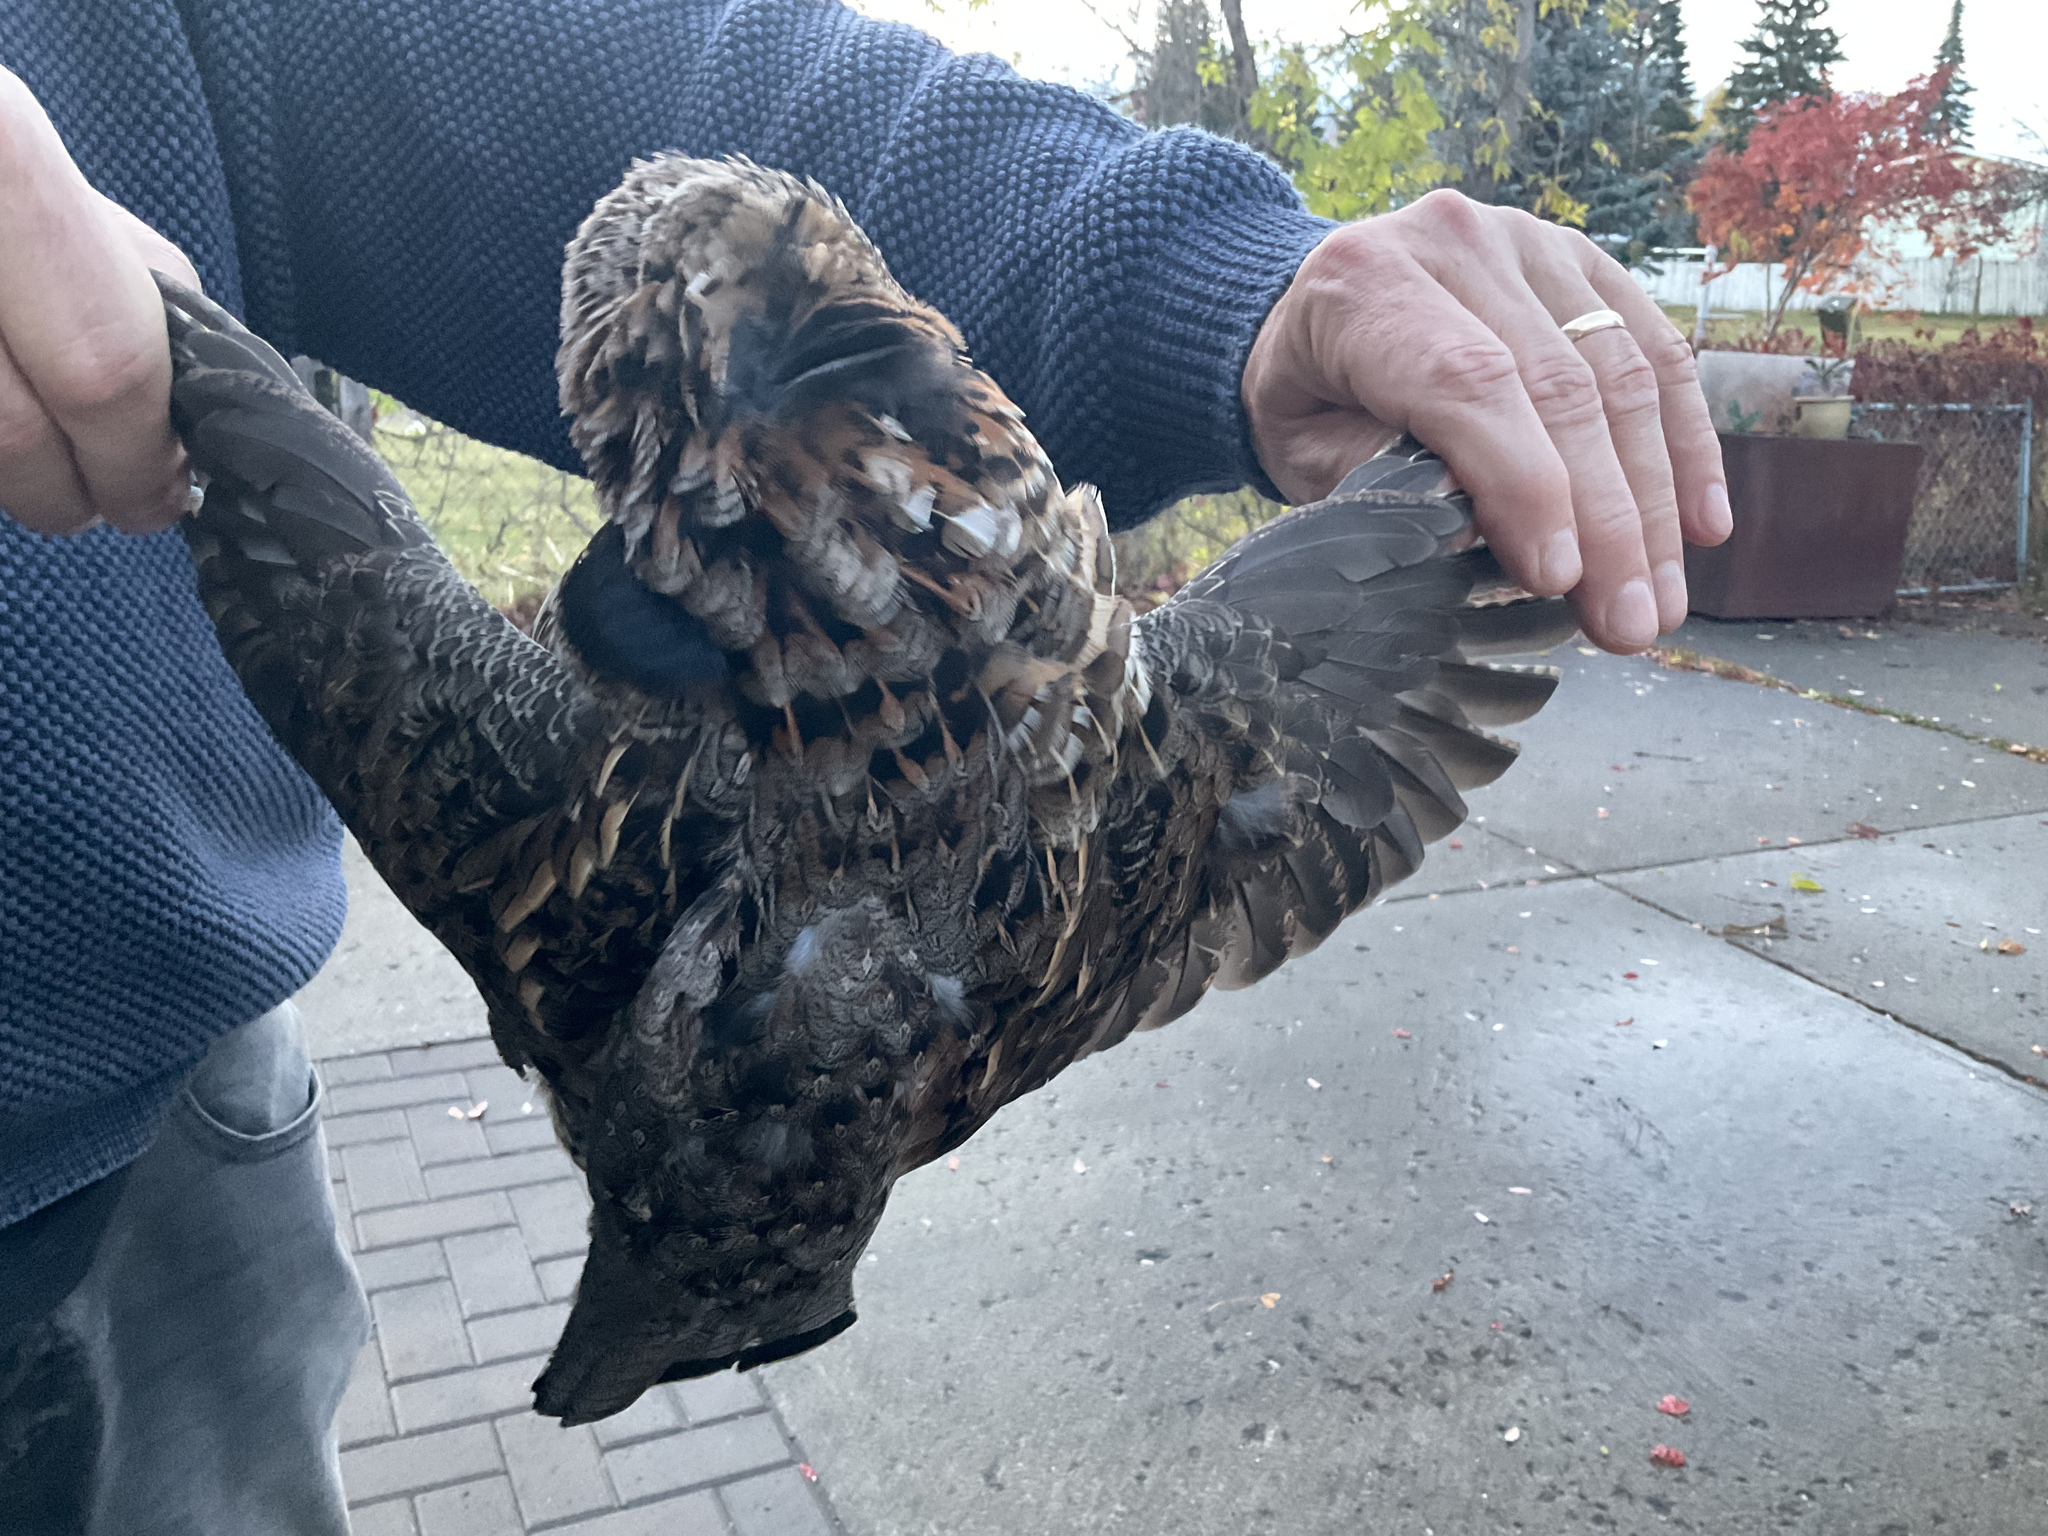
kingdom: Animalia
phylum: Chordata
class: Aves
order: Galliformes
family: Phasianidae
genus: Bonasa
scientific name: Bonasa umbellus
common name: Ruffed grouse
